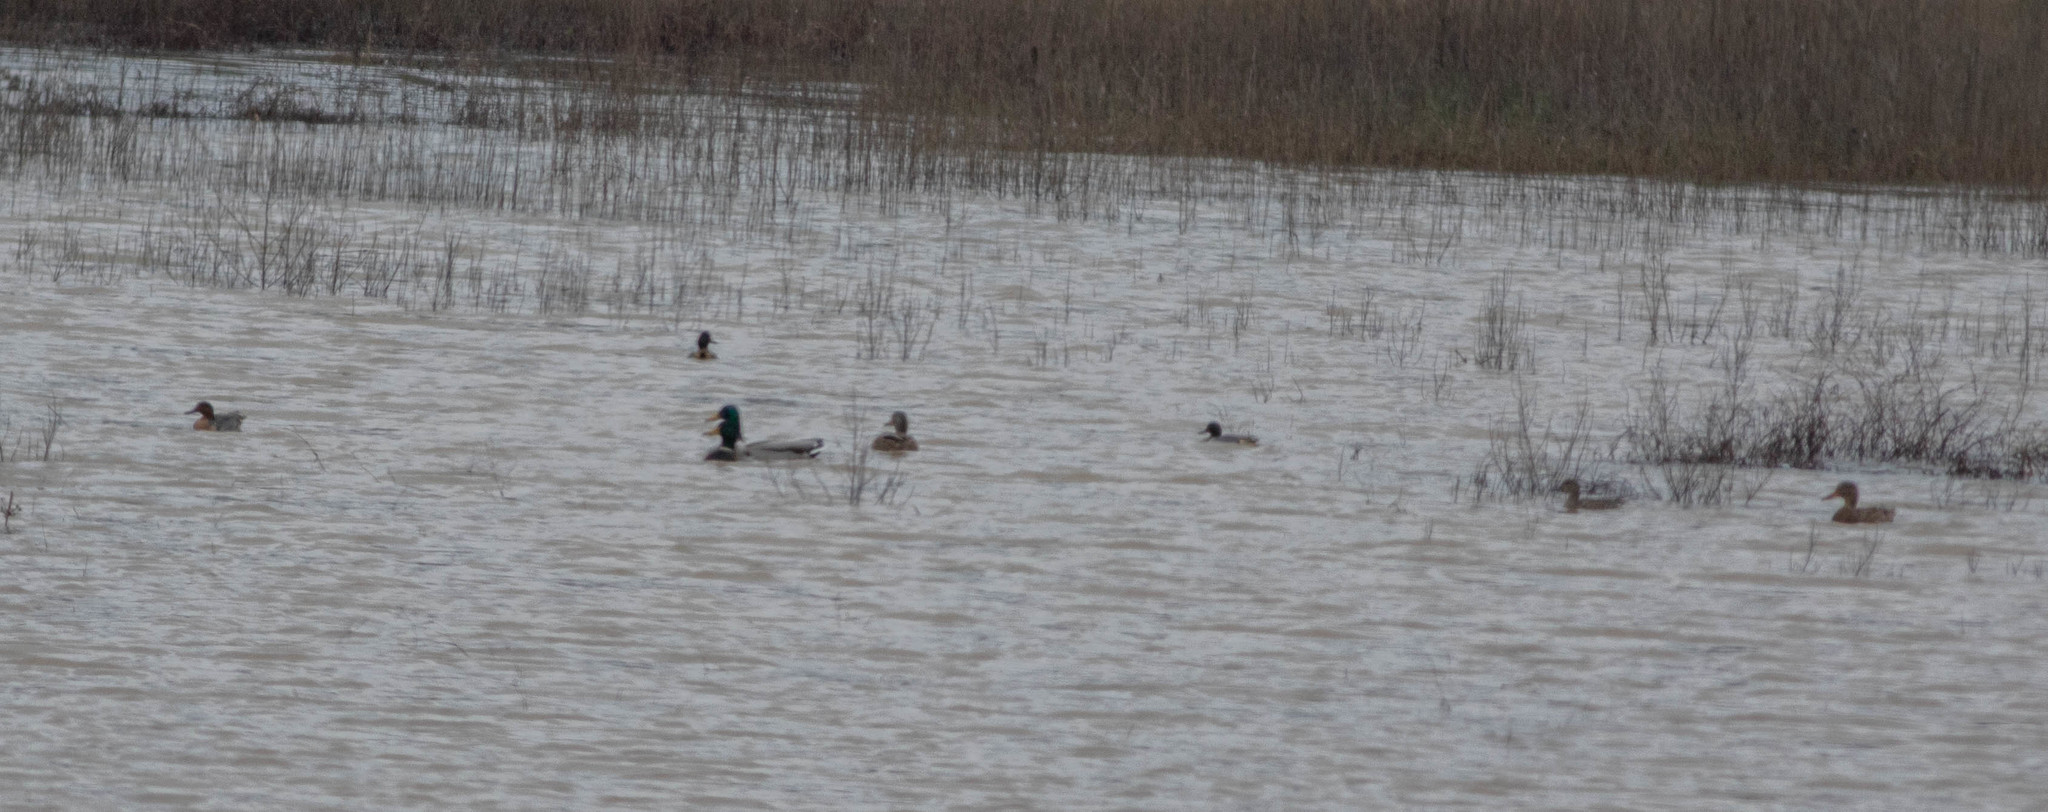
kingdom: Animalia
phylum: Chordata
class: Aves
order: Anseriformes
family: Anatidae
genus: Anas
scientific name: Anas platyrhynchos
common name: Mallard
